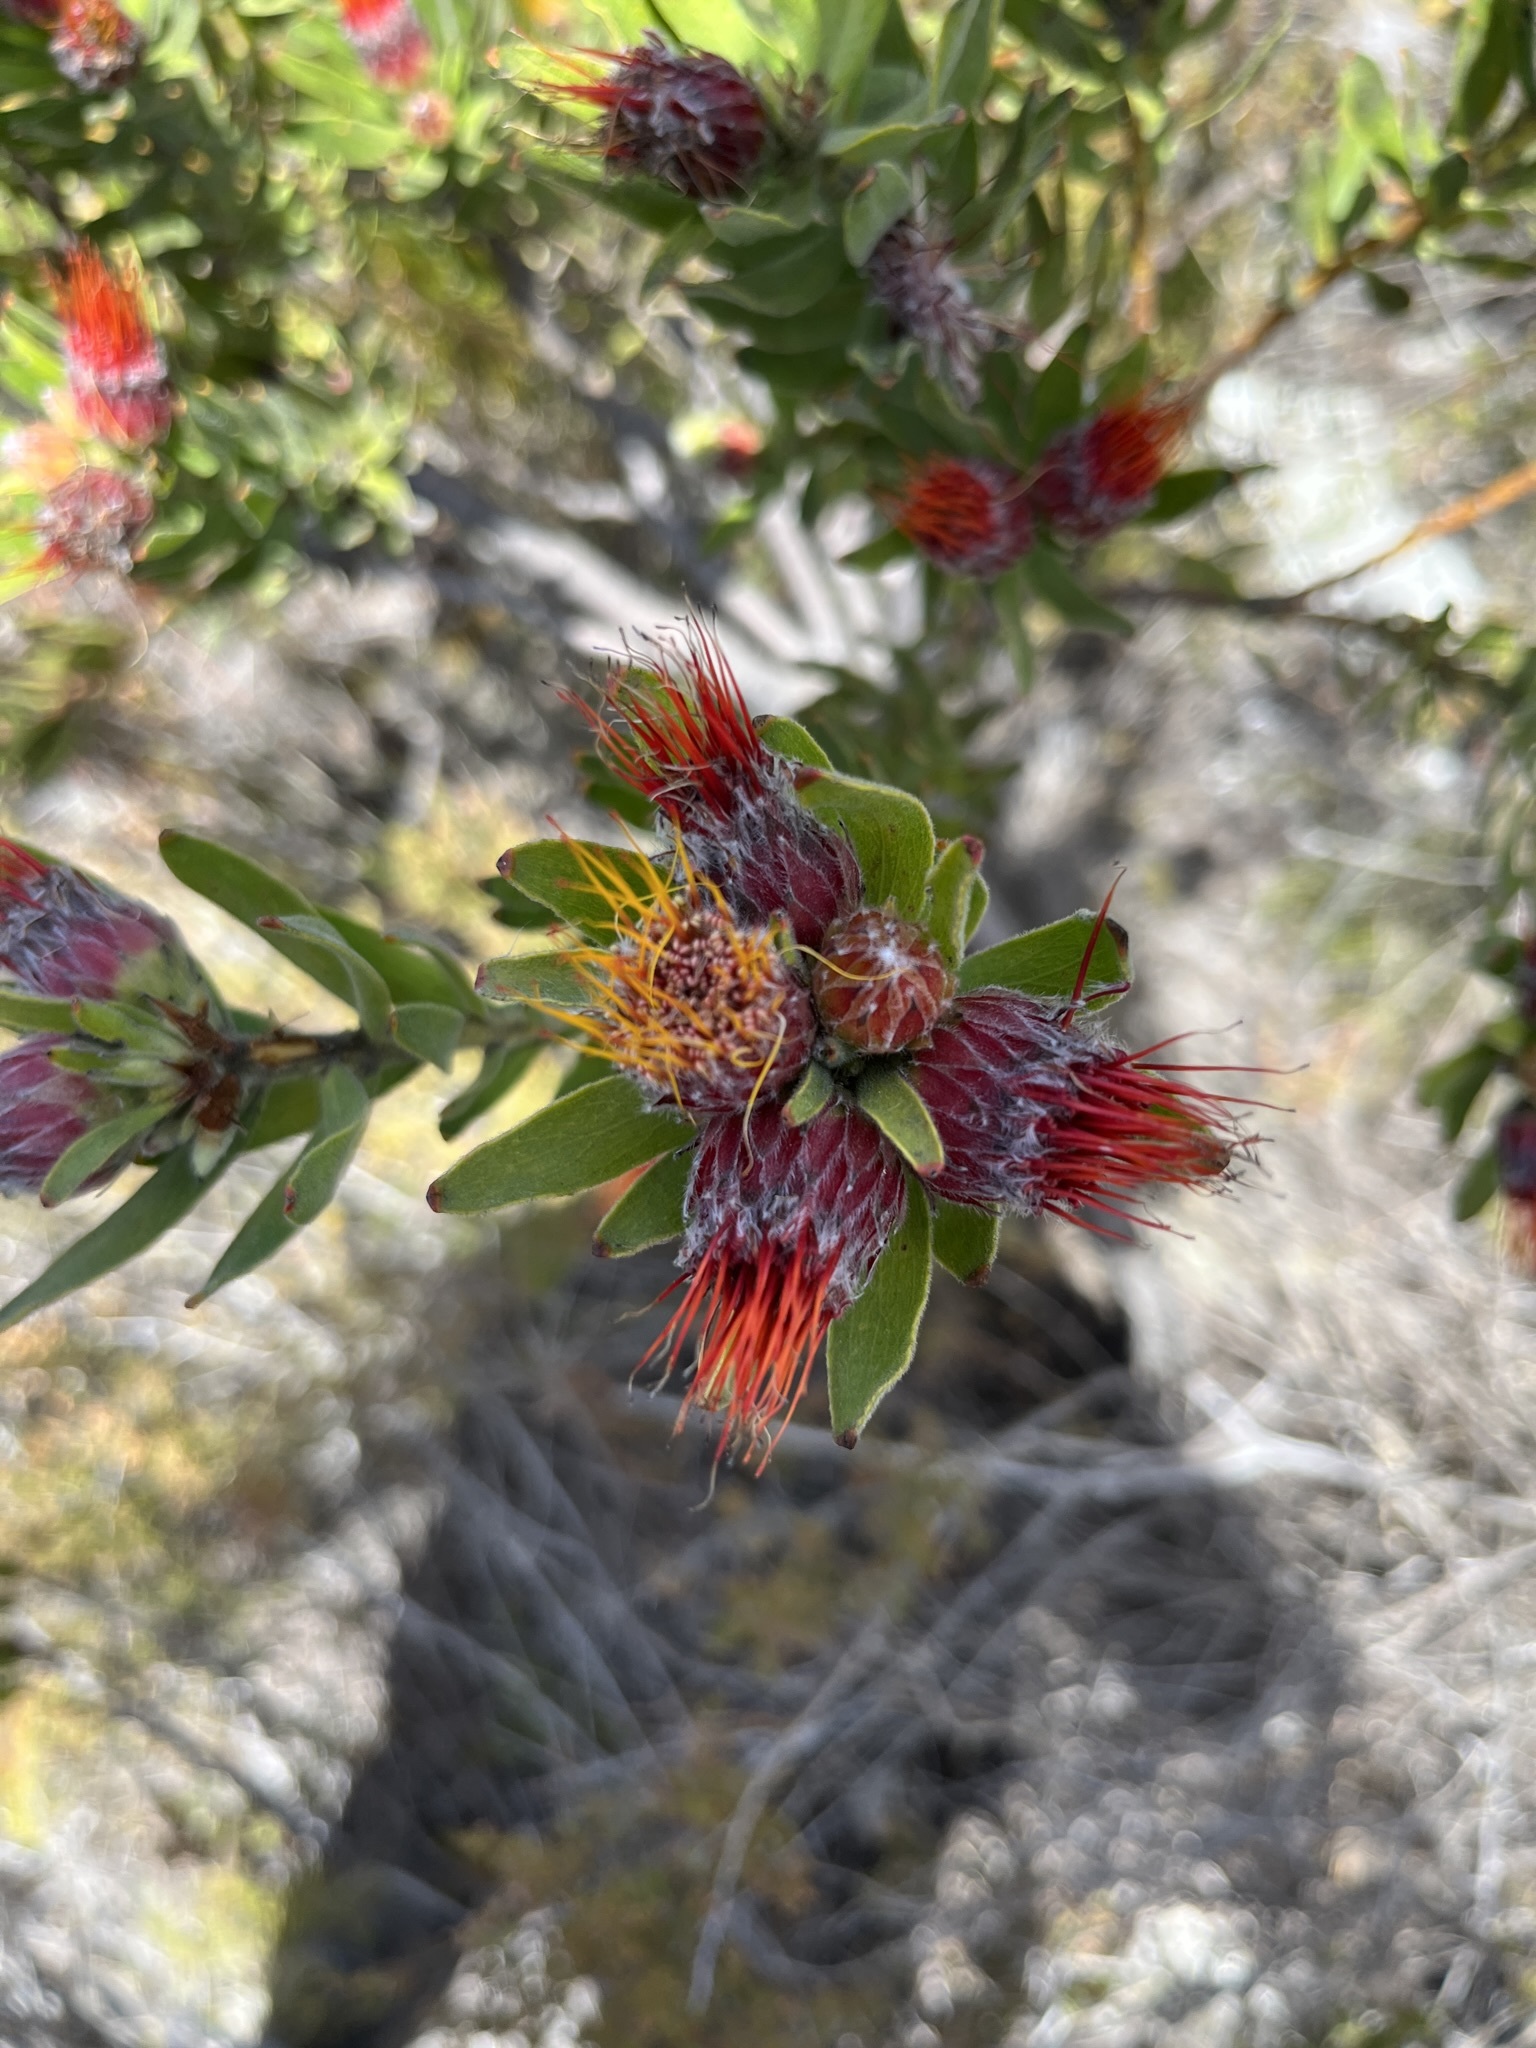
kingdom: Plantae
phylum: Tracheophyta
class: Magnoliopsida
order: Proteales
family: Proteaceae
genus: Leucospermum
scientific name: Leucospermum oleifolium
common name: Matches
